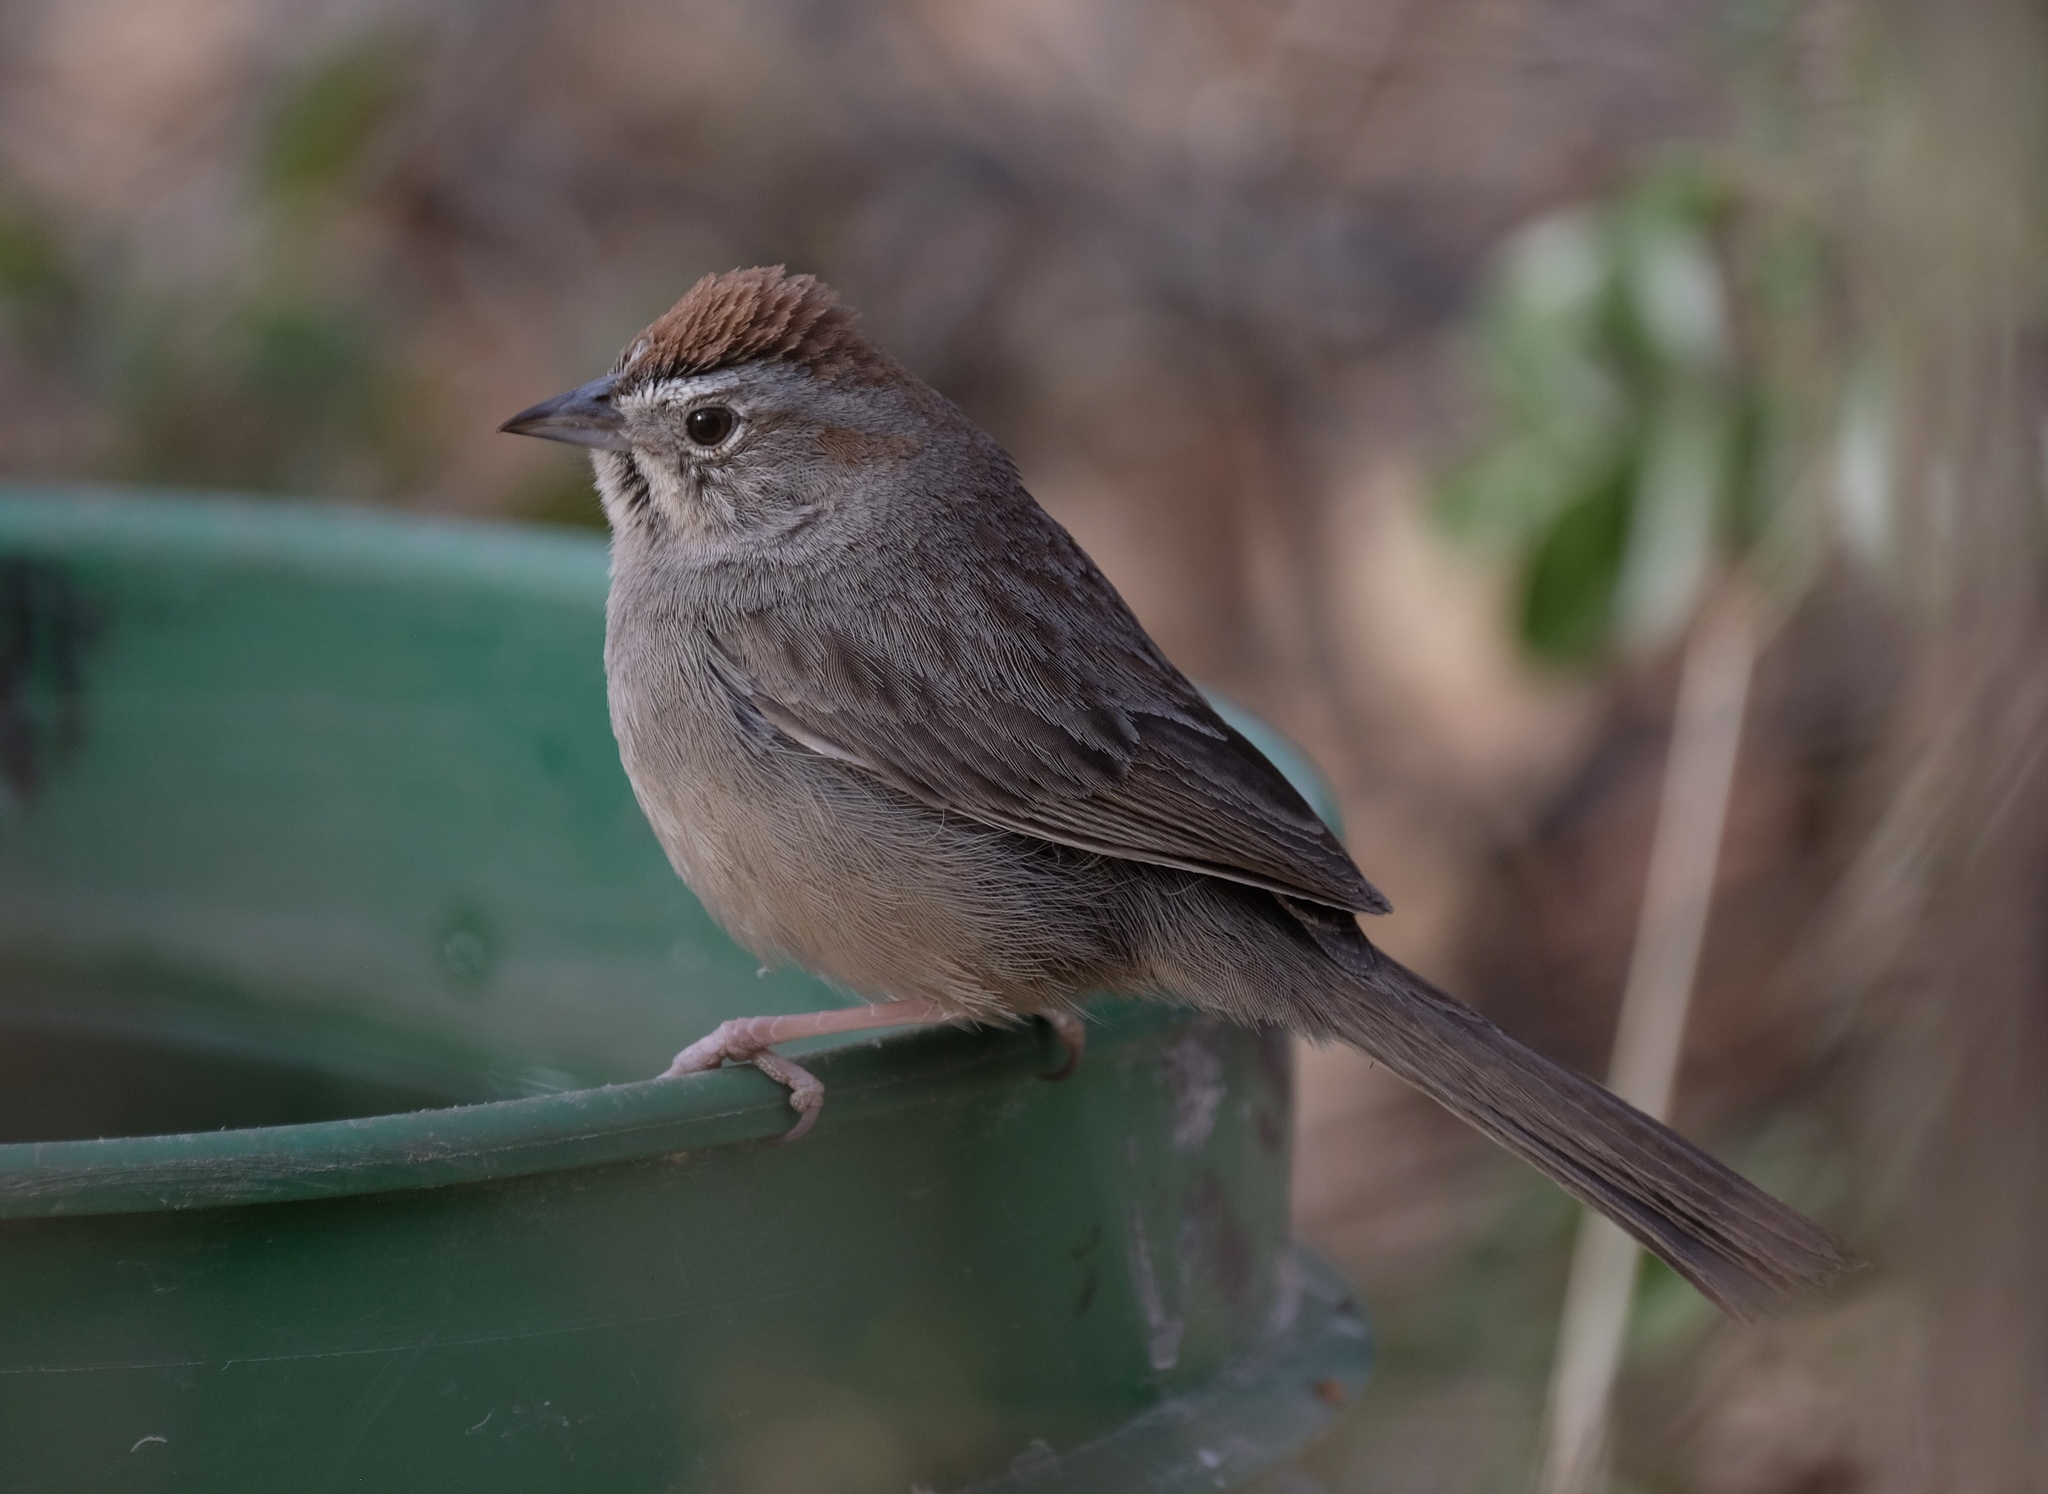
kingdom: Animalia
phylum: Chordata
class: Aves
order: Passeriformes
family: Passerellidae
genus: Aimophila
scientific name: Aimophila ruficeps
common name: Rufous-crowned sparrow
